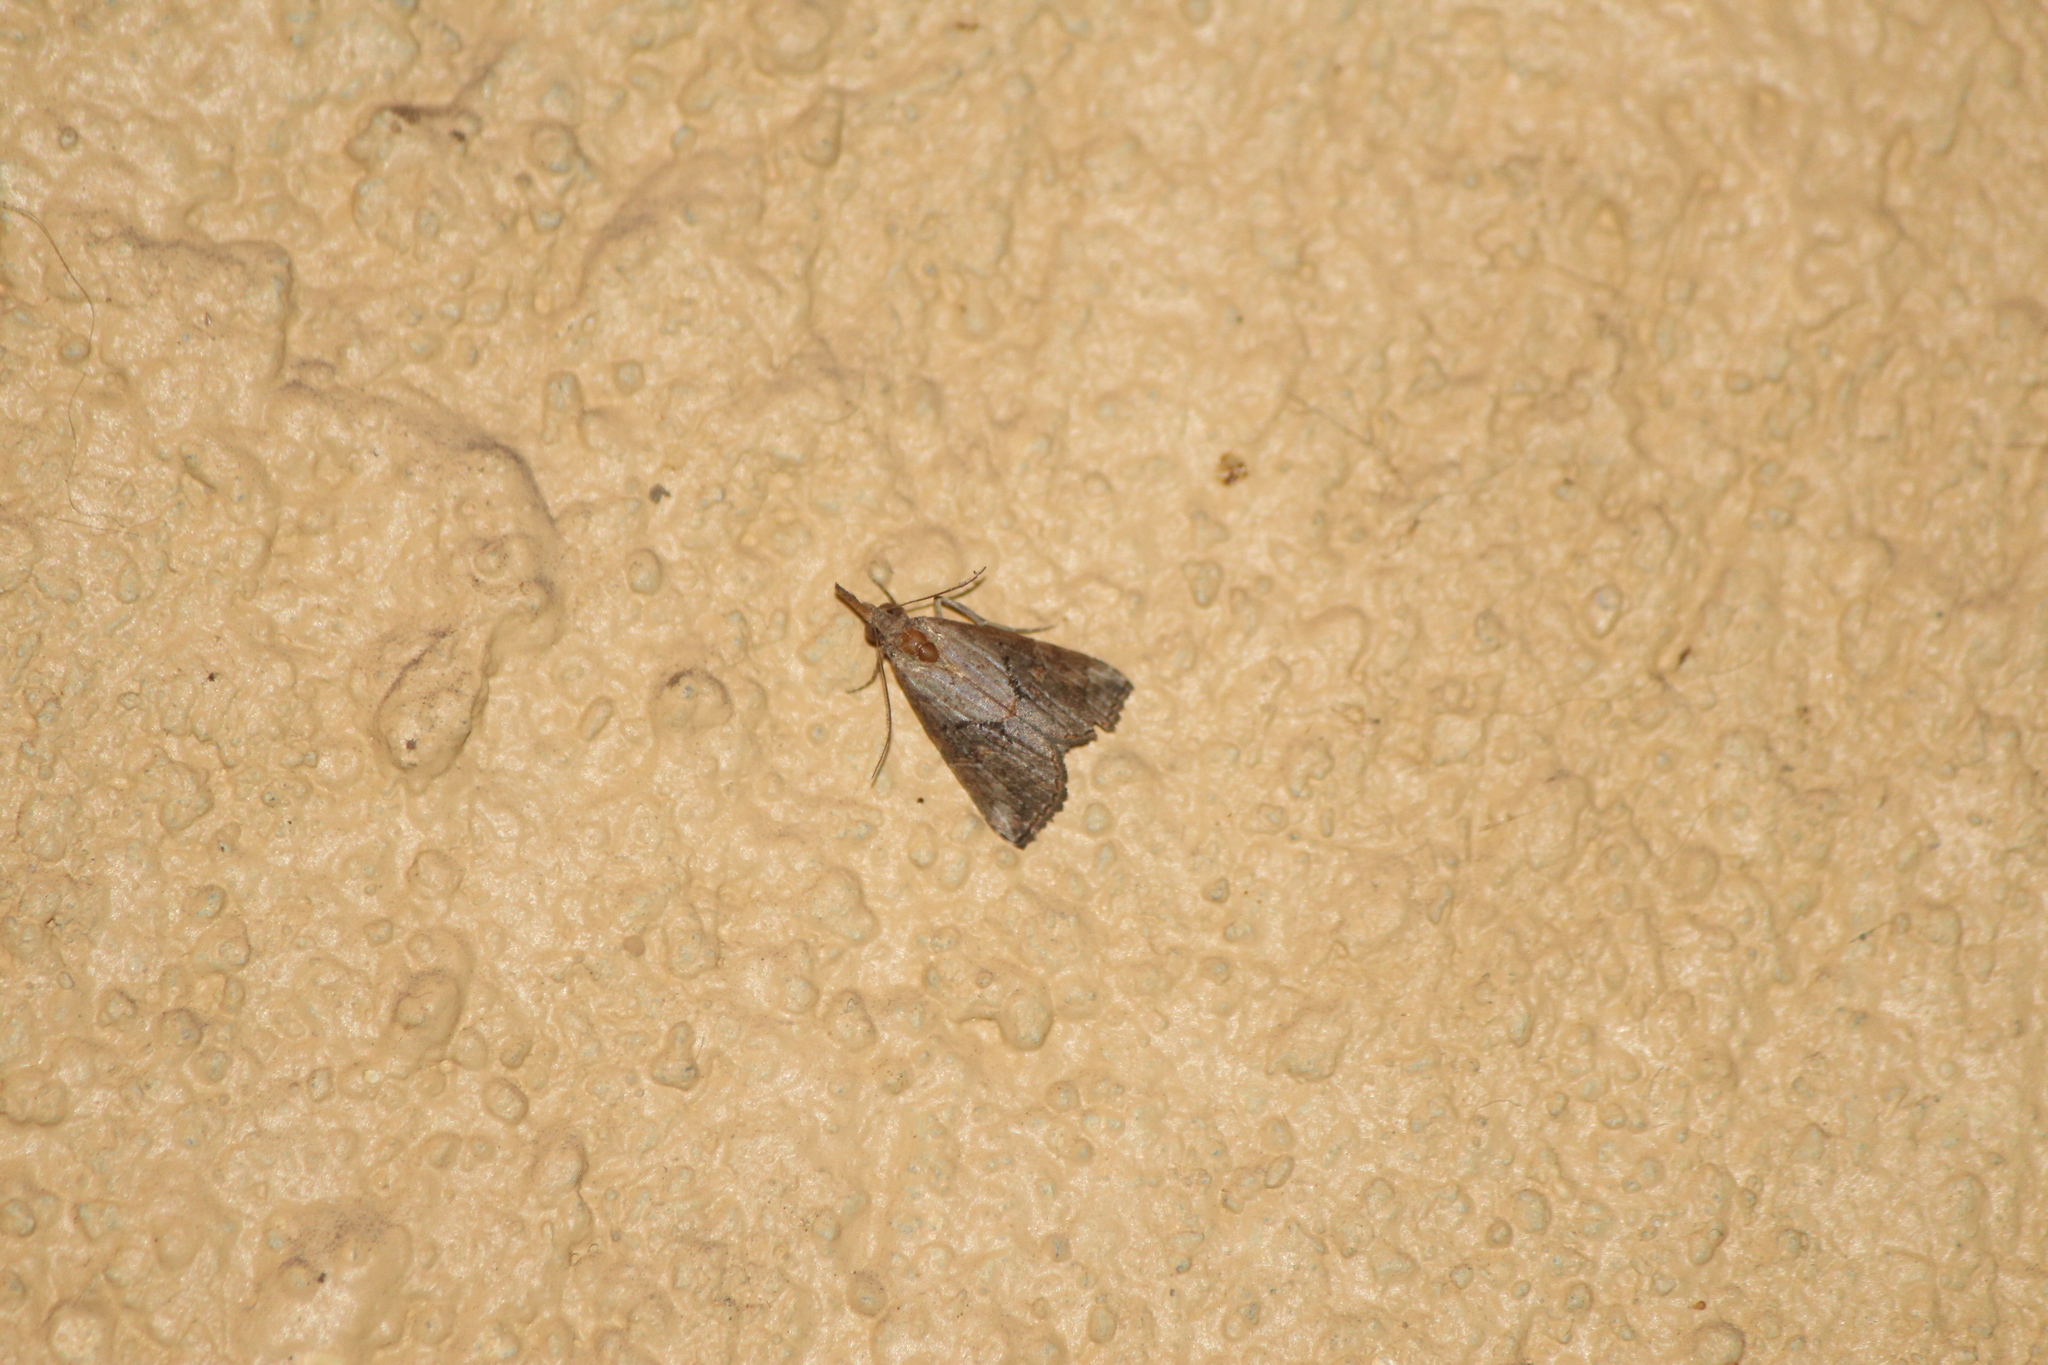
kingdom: Animalia
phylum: Arthropoda
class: Insecta
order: Lepidoptera
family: Erebidae
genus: Hypena
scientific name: Hypena minualis
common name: Sooty snout
